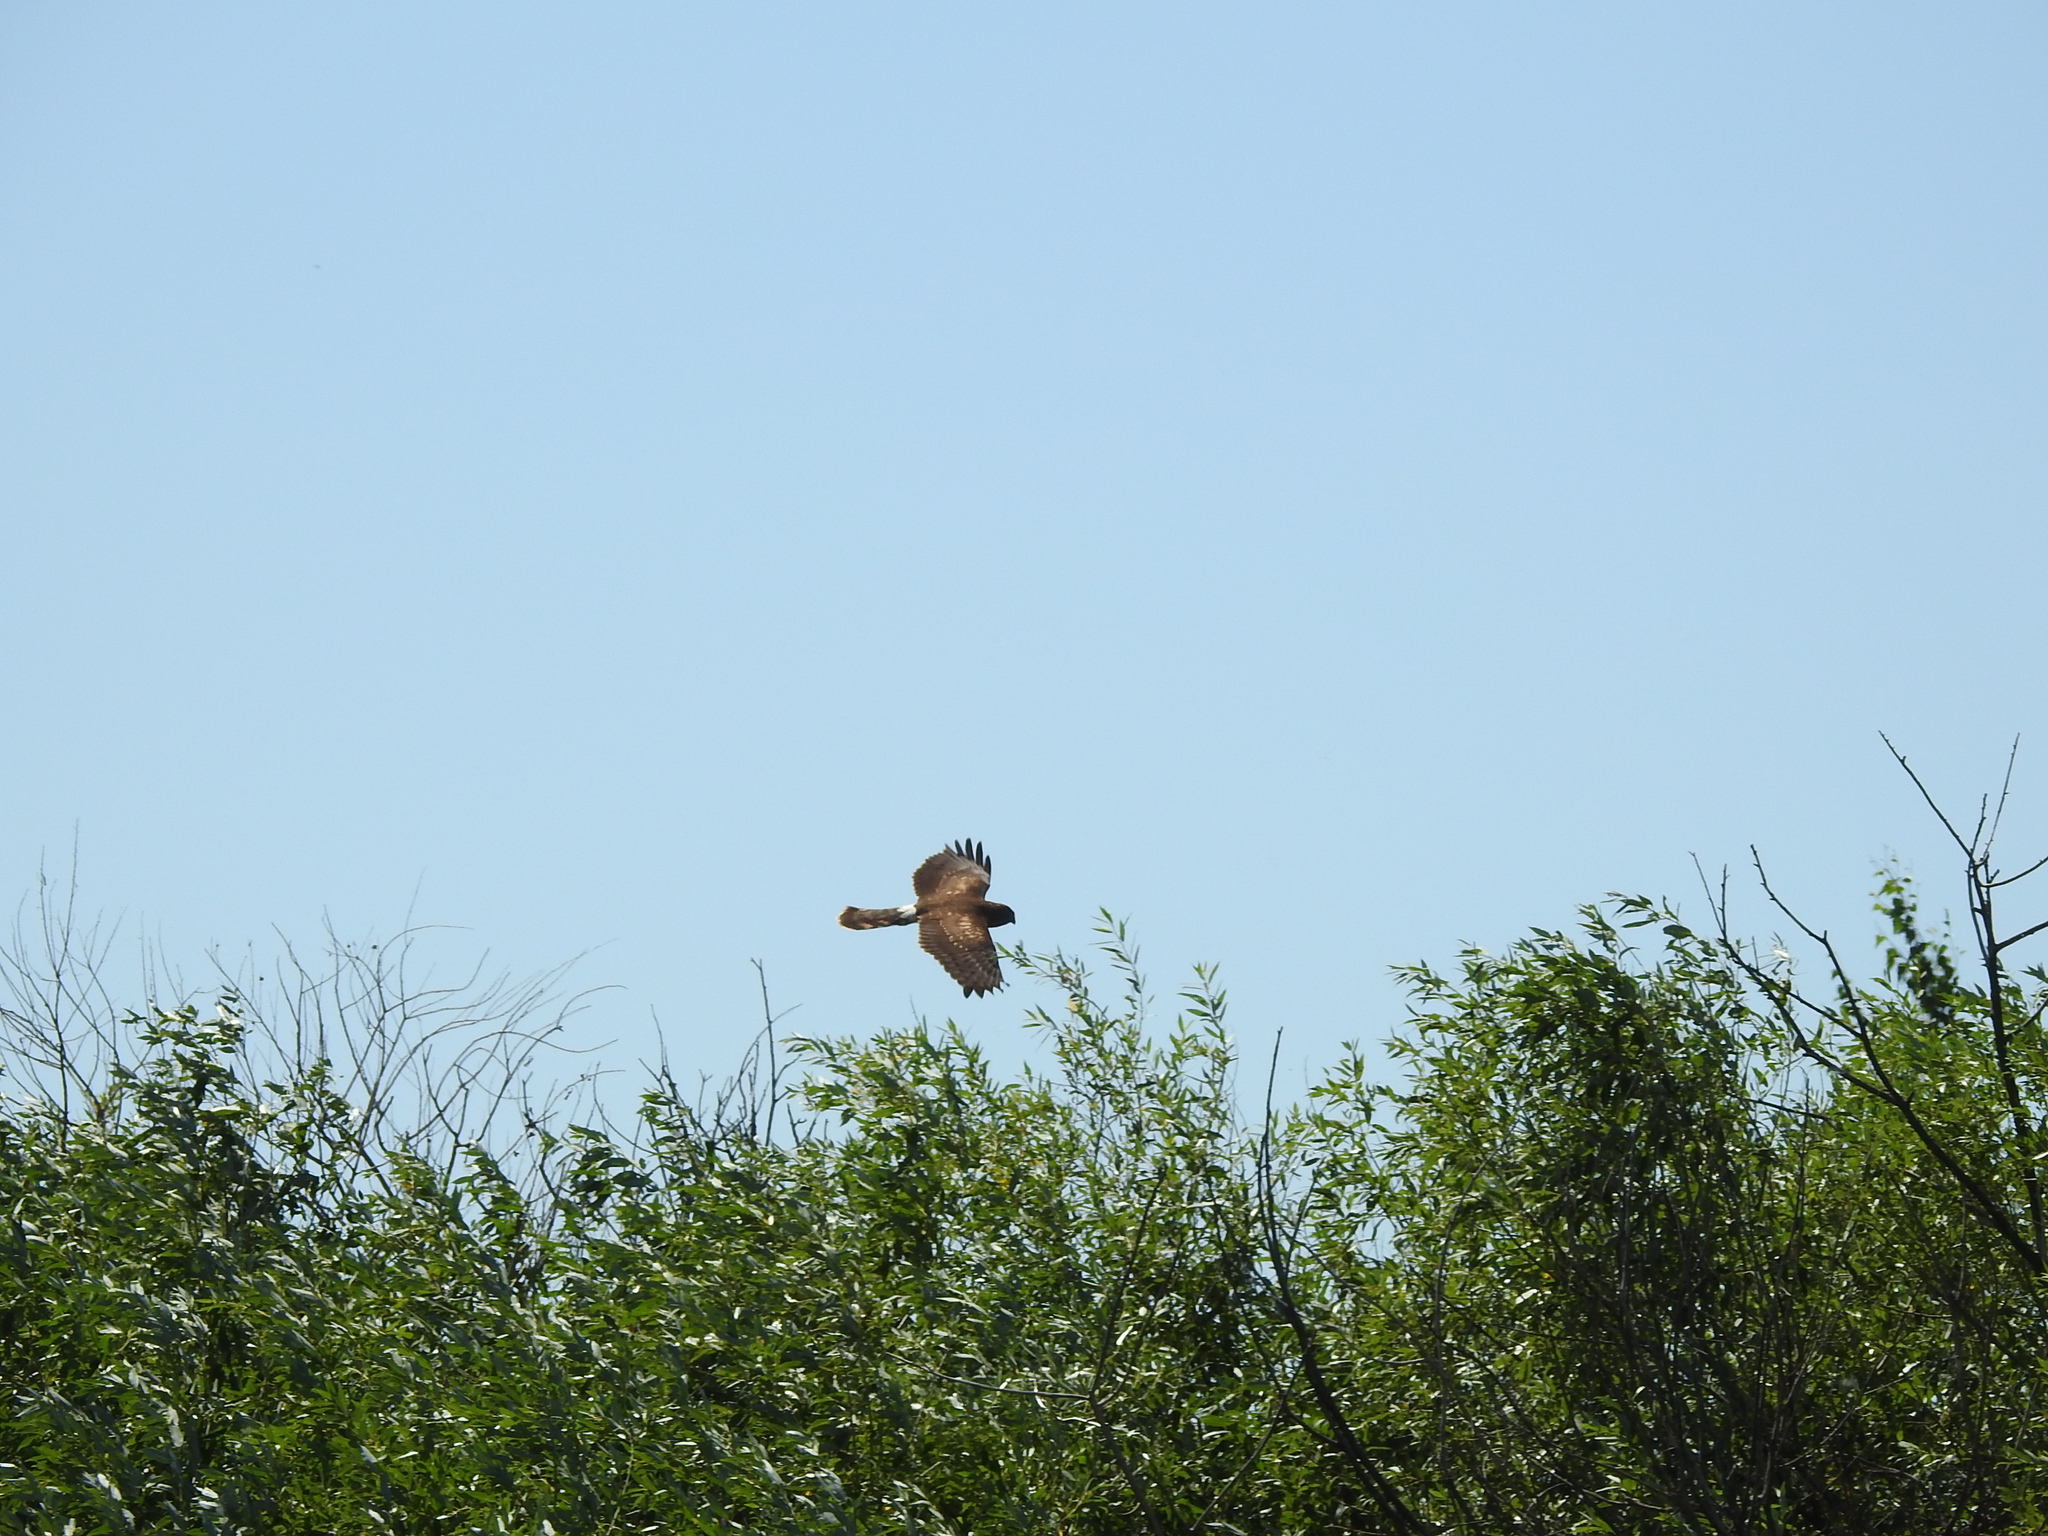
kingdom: Animalia
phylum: Chordata
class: Aves
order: Accipitriformes
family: Accipitridae
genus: Circus
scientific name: Circus aeruginosus
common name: Western marsh harrier
